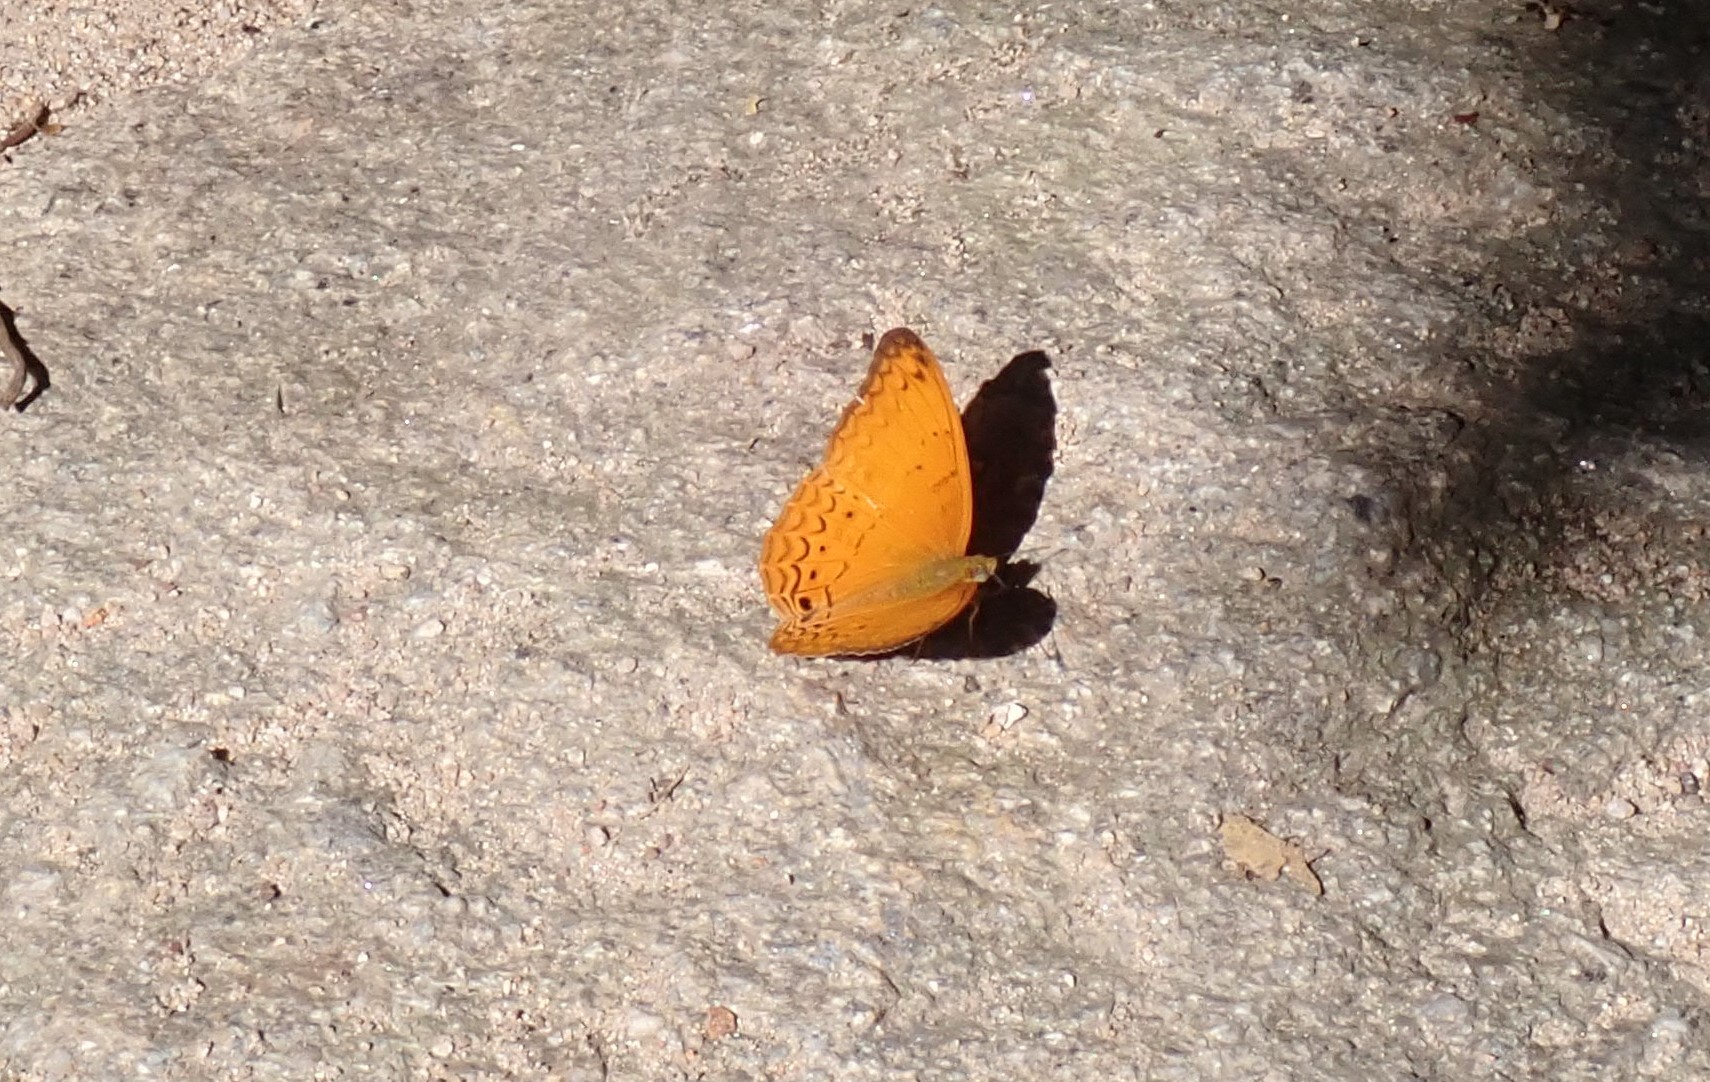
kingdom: Animalia
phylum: Arthropoda
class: Insecta
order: Lepidoptera
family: Nymphalidae
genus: Cirrochroa
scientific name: Cirrochroa tyche
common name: Common yeoman
